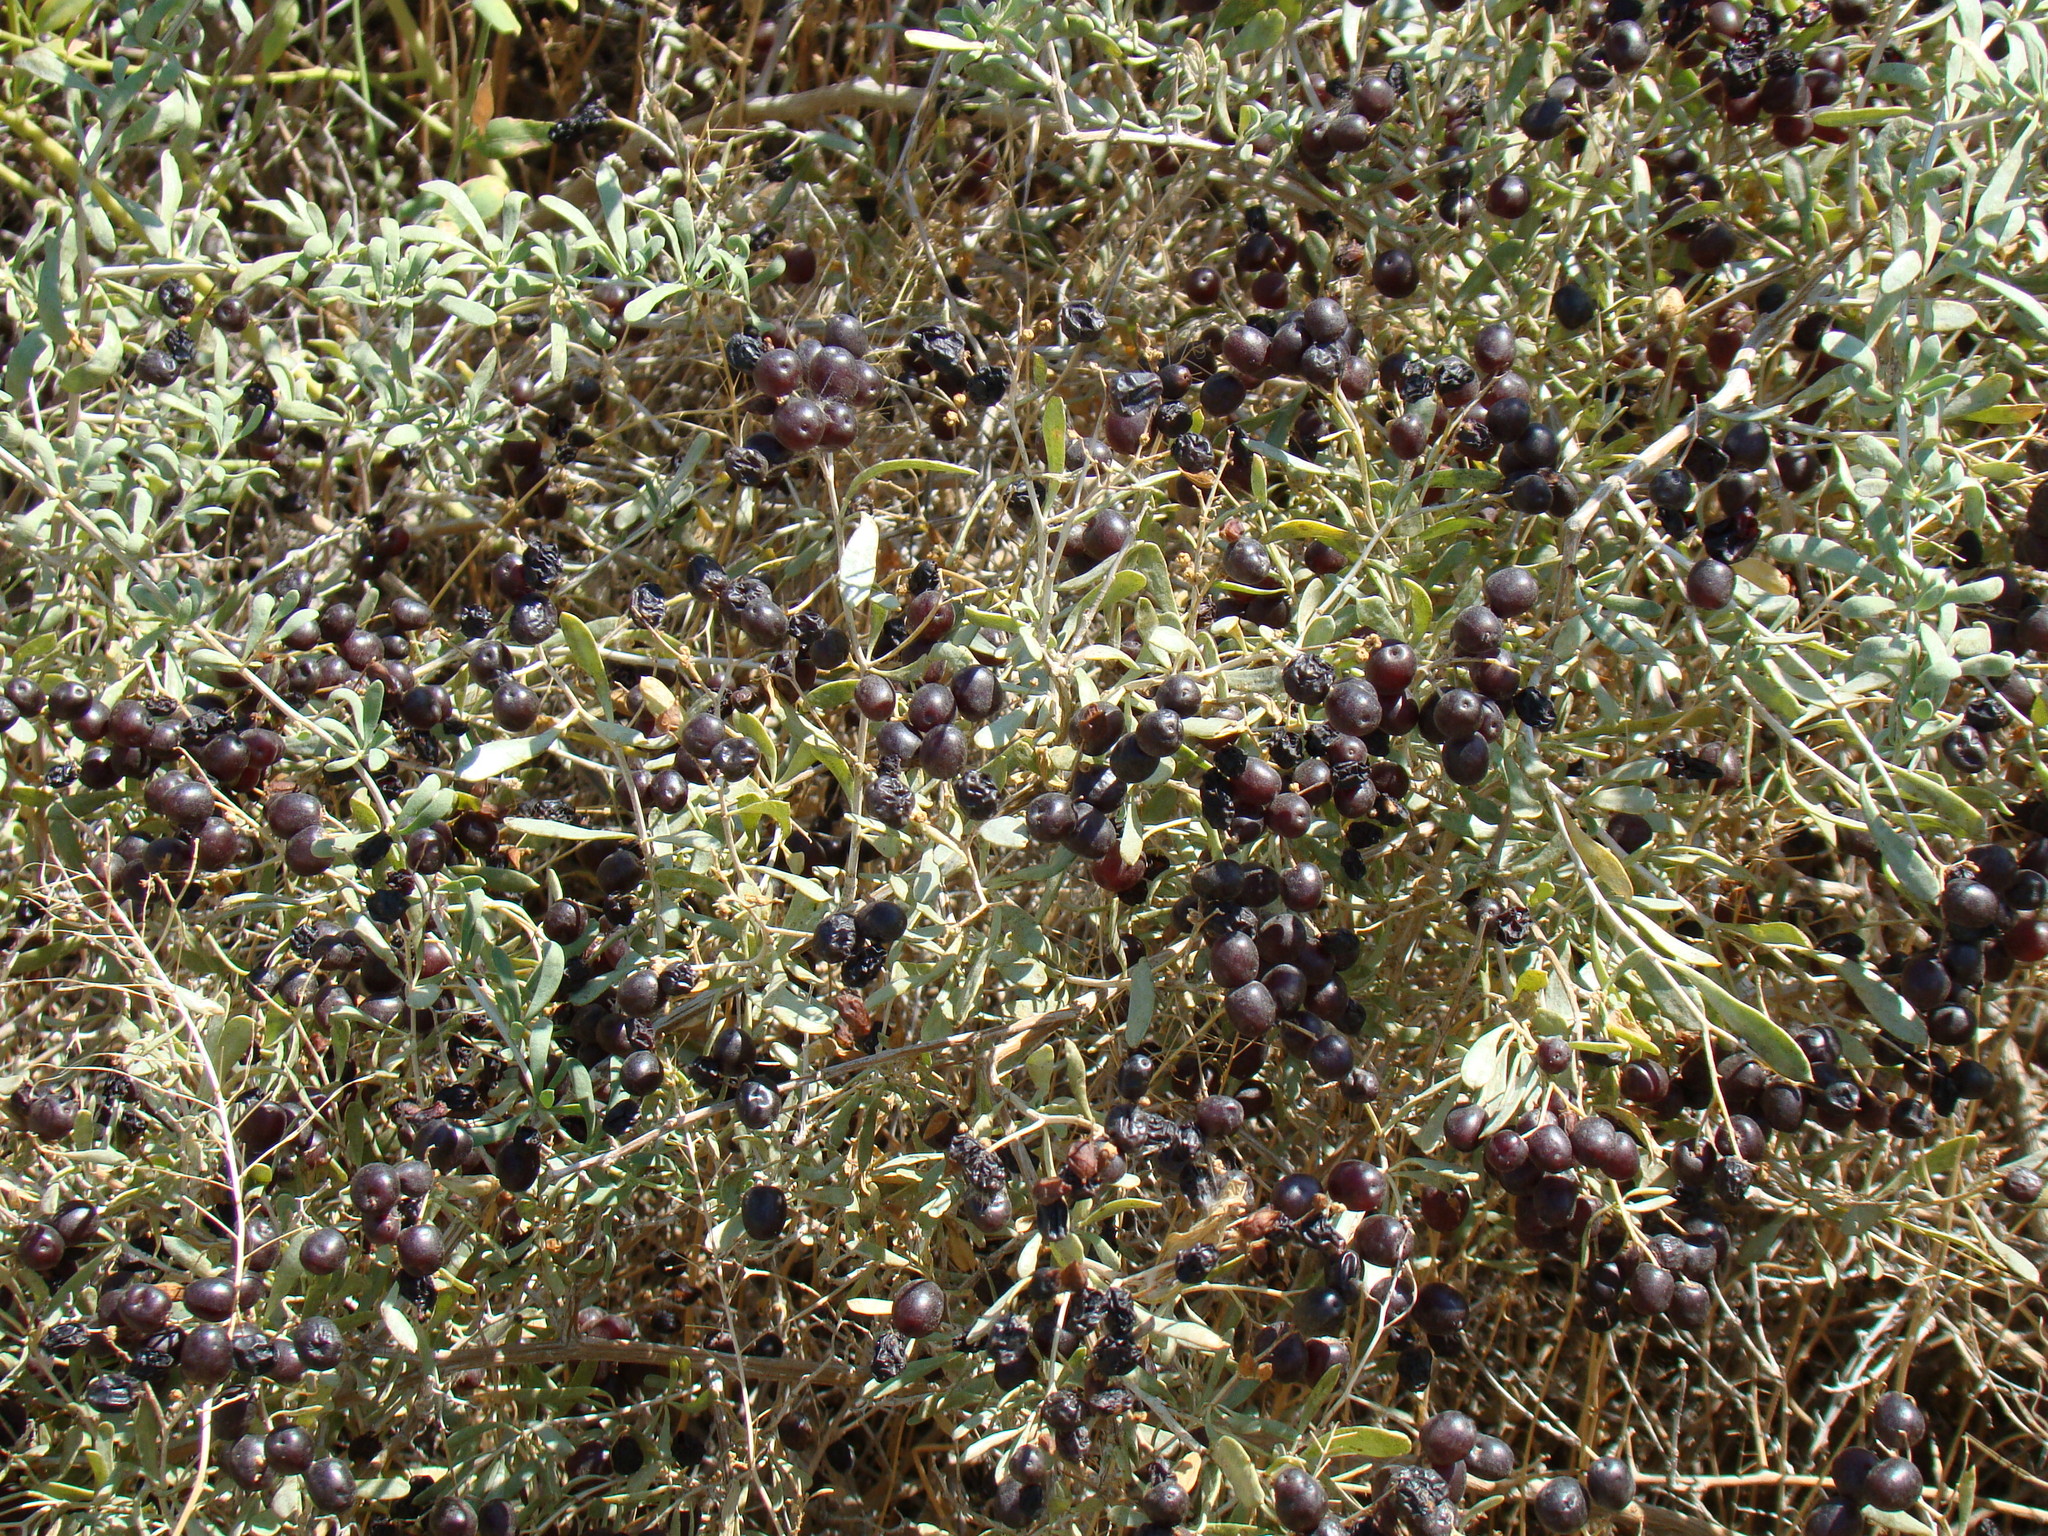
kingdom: Plantae
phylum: Tracheophyta
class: Magnoliopsida
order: Sapindales
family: Nitrariaceae
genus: Nitraria
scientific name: Nitraria schoberi
